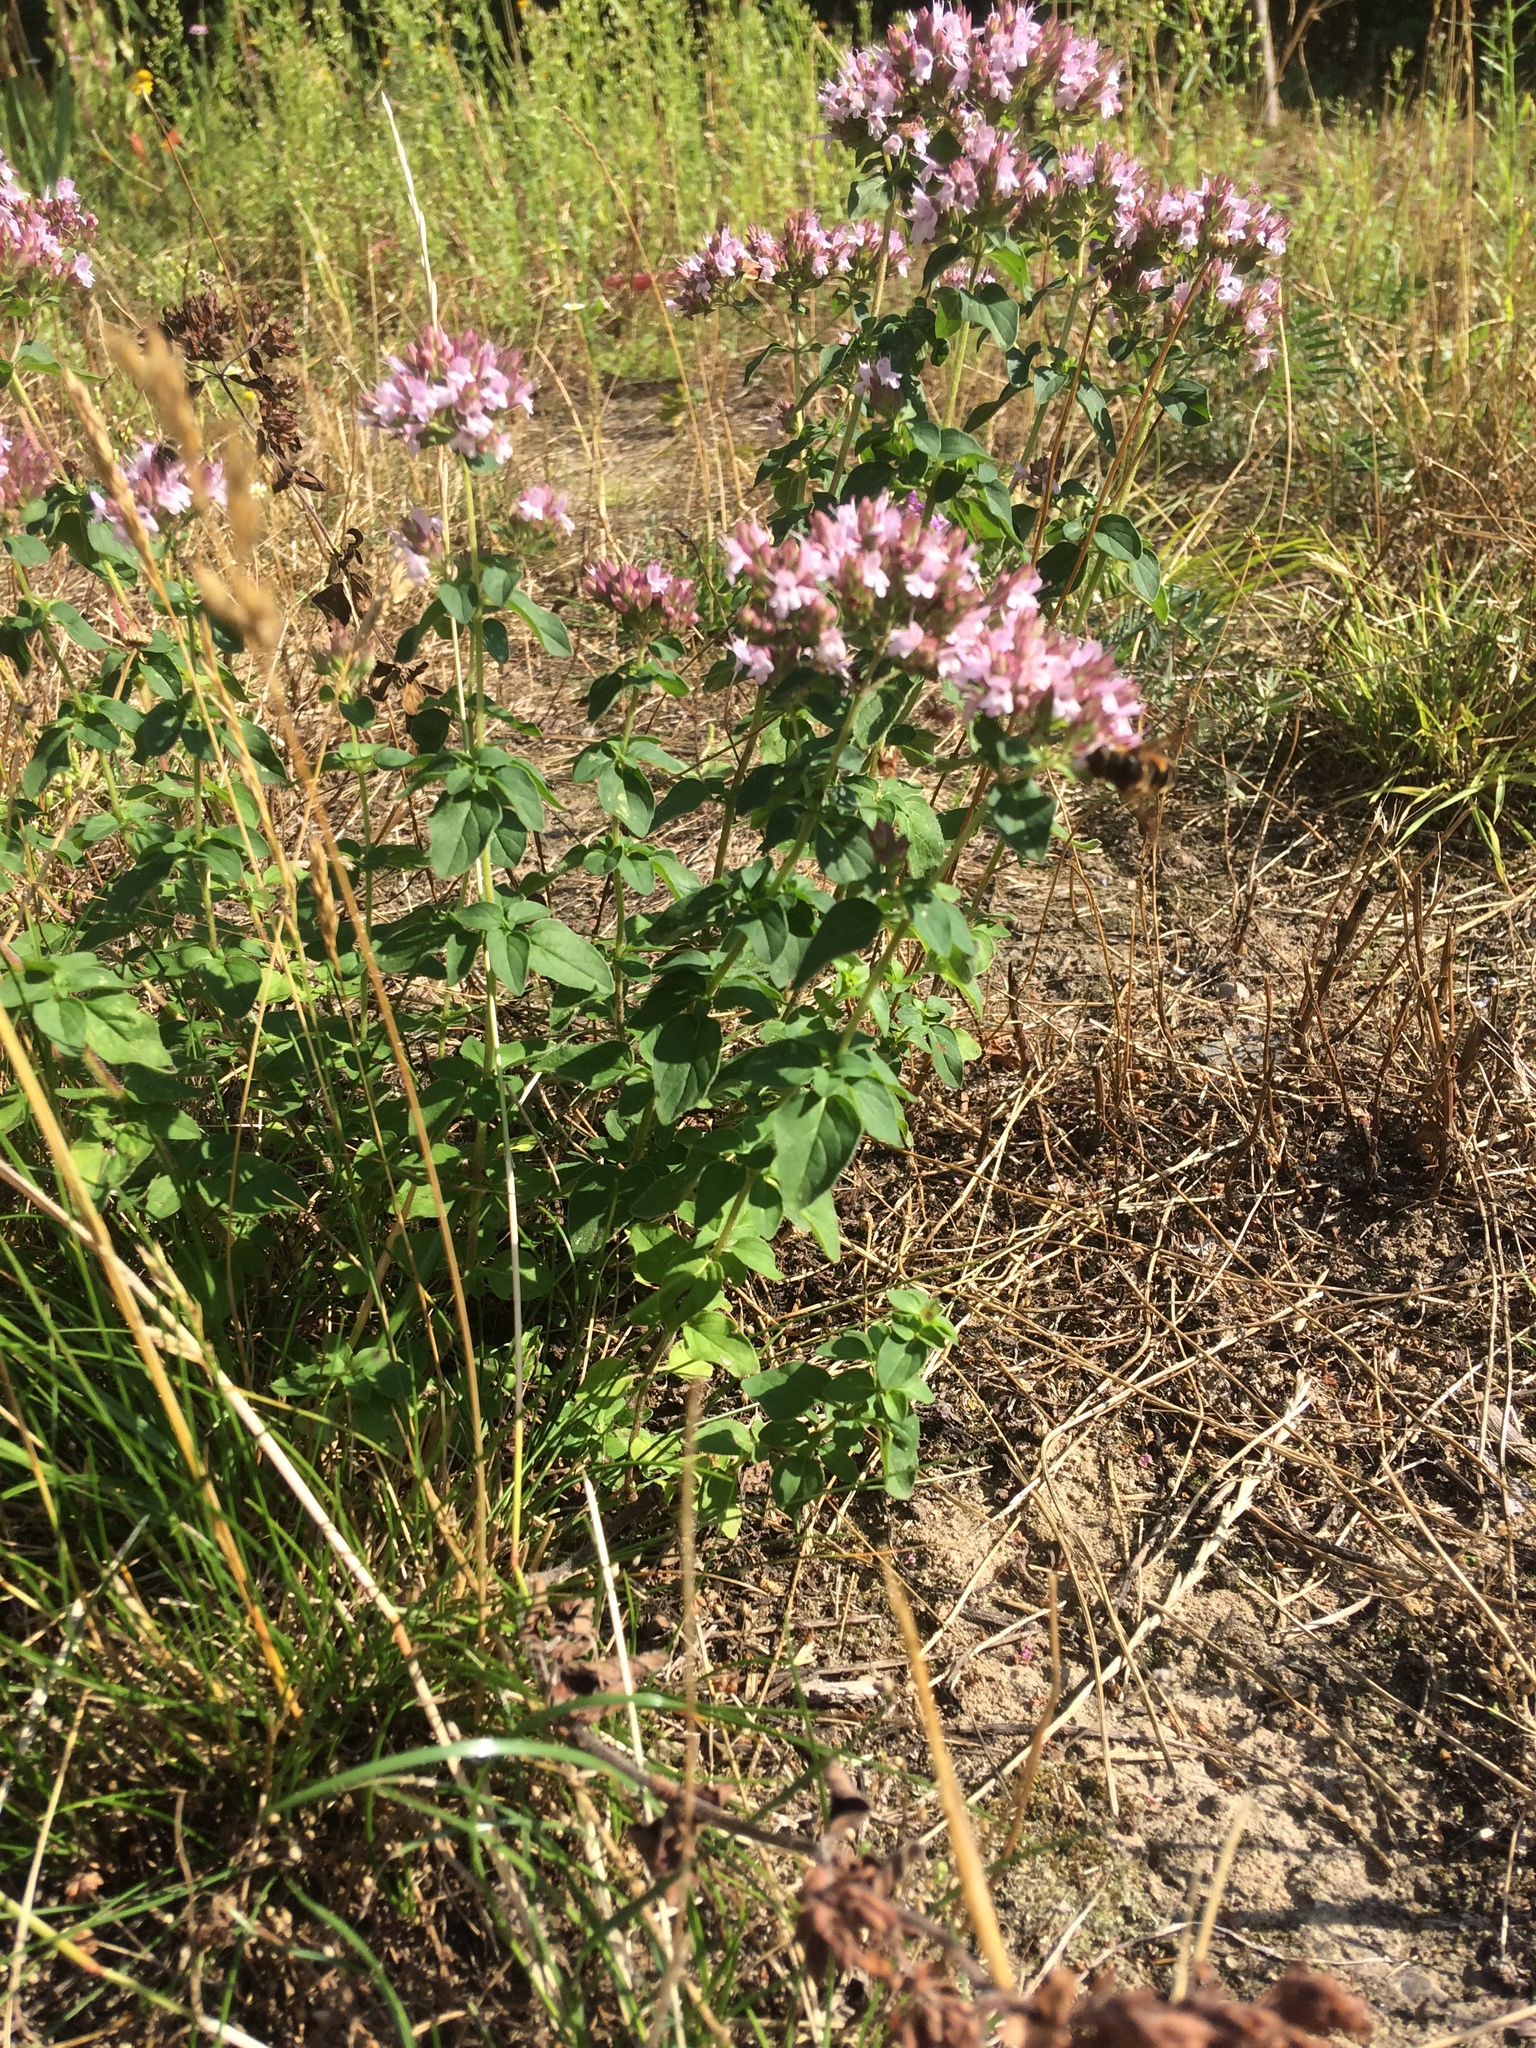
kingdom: Plantae
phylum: Tracheophyta
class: Magnoliopsida
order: Lamiales
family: Lamiaceae
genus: Origanum
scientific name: Origanum vulgare
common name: Wild marjoram
